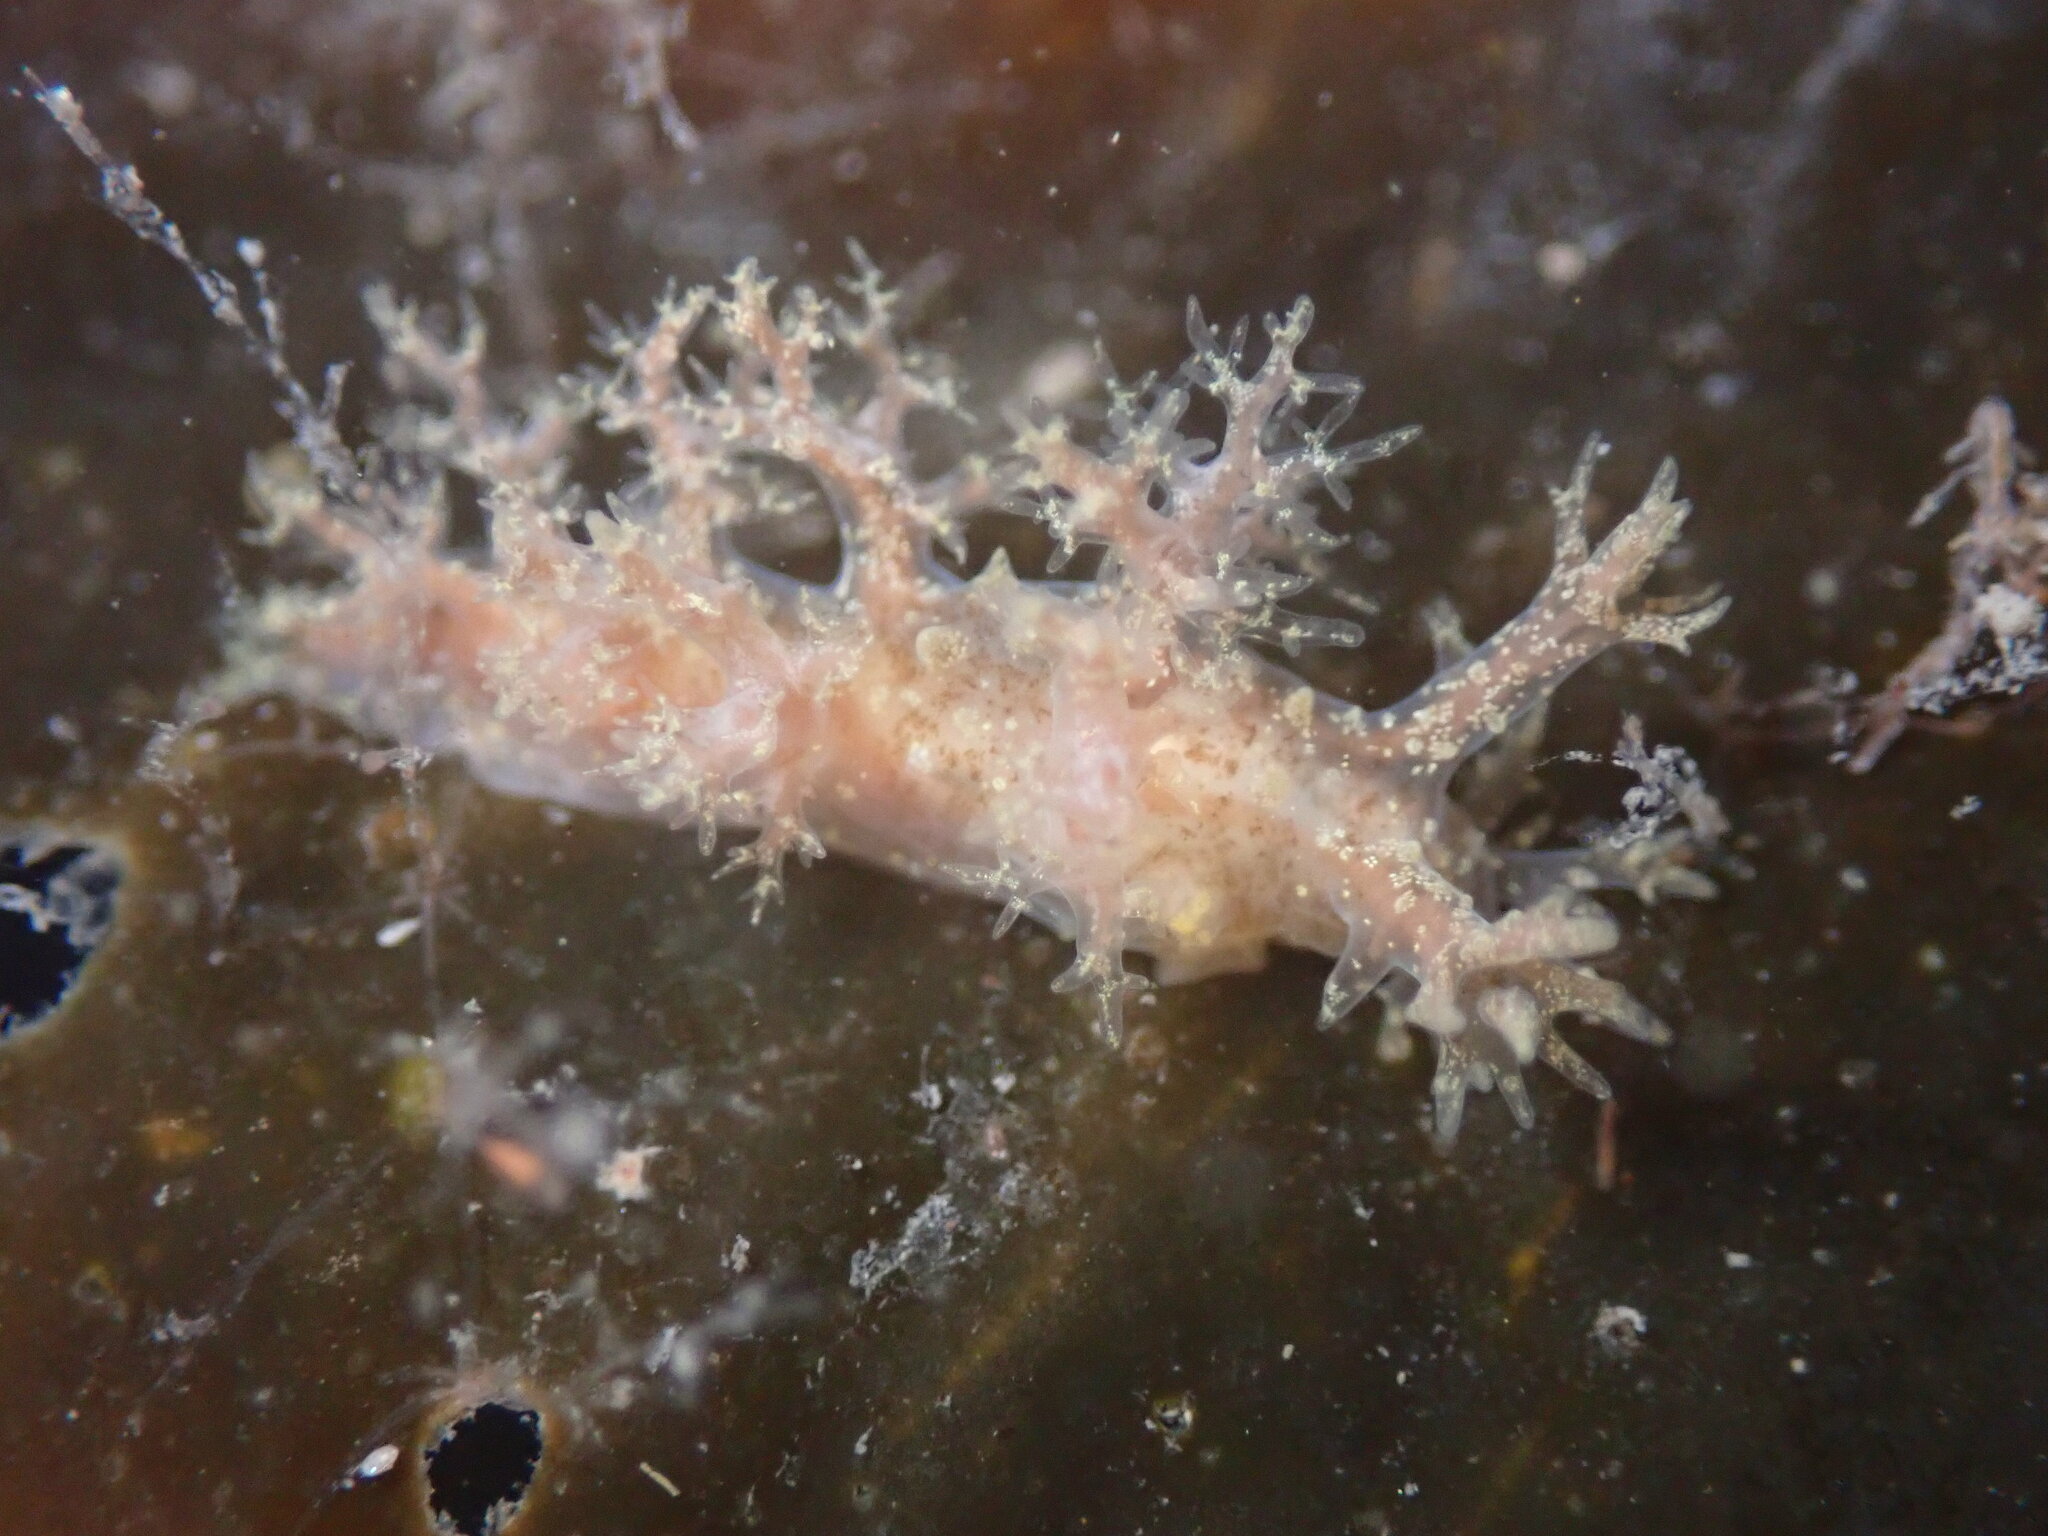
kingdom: Animalia
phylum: Mollusca
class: Gastropoda
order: Nudibranchia
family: Dendronotidae
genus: Dendronotus
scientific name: Dendronotus venustus
